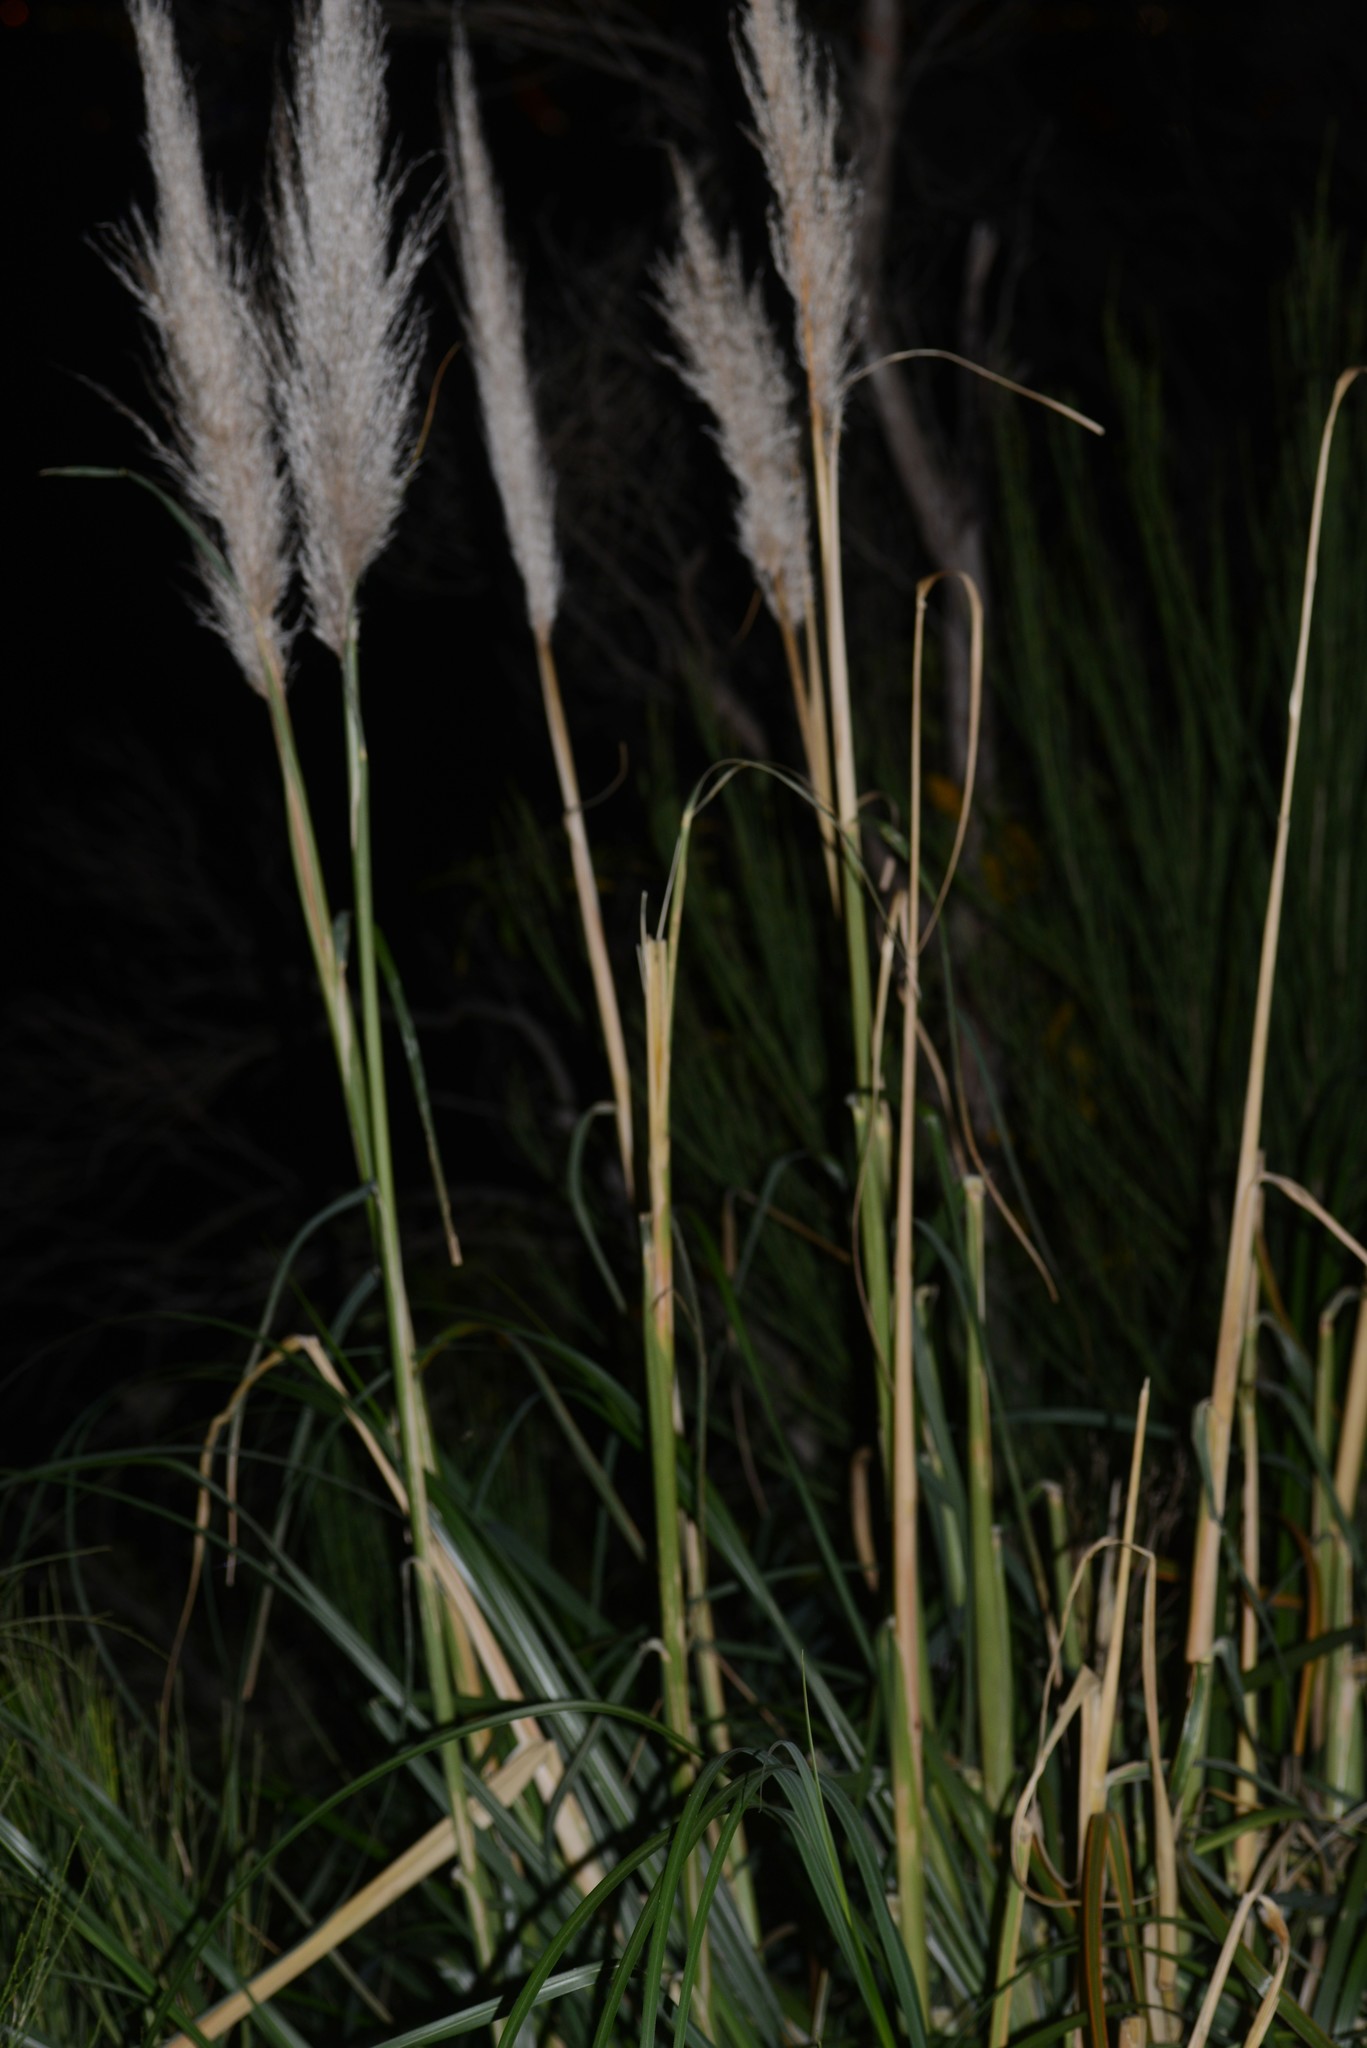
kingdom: Plantae
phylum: Tracheophyta
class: Liliopsida
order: Poales
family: Poaceae
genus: Cortaderia
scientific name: Cortaderia selloana
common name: Uruguayan pampas grass
